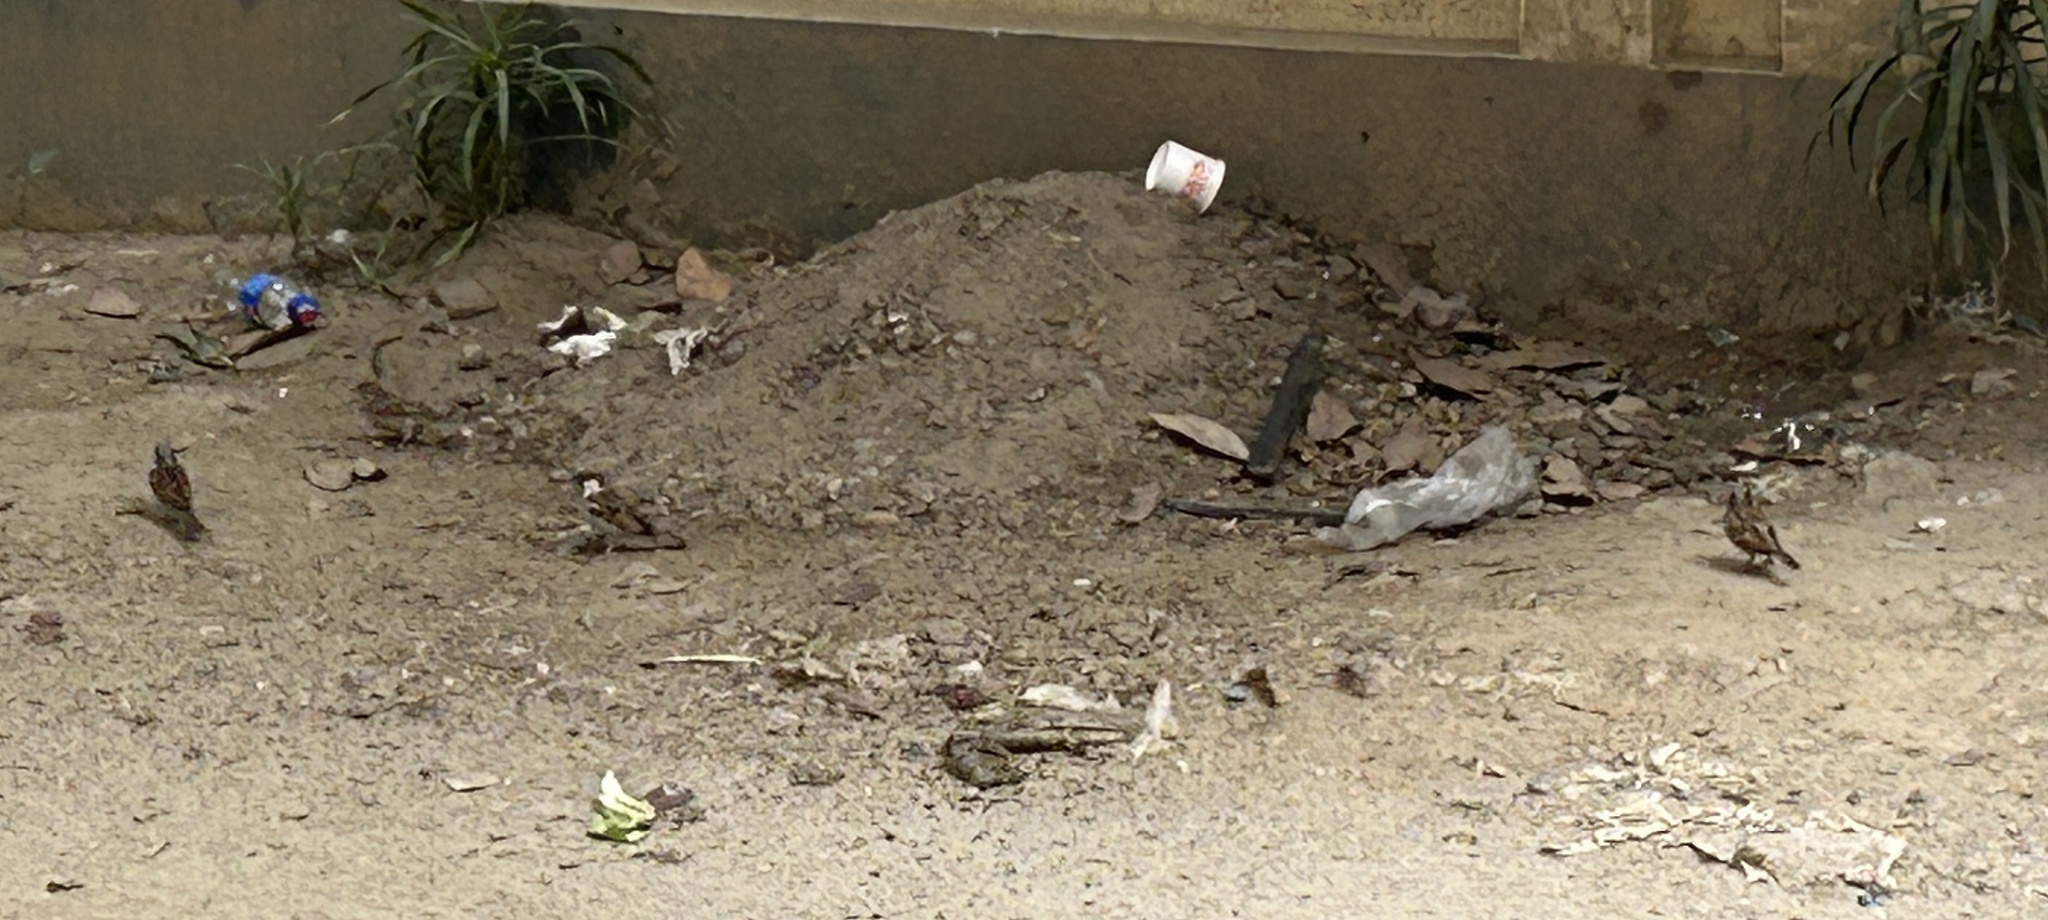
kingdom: Animalia
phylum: Chordata
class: Aves
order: Passeriformes
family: Passeridae
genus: Passer
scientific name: Passer domesticus
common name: House sparrow
